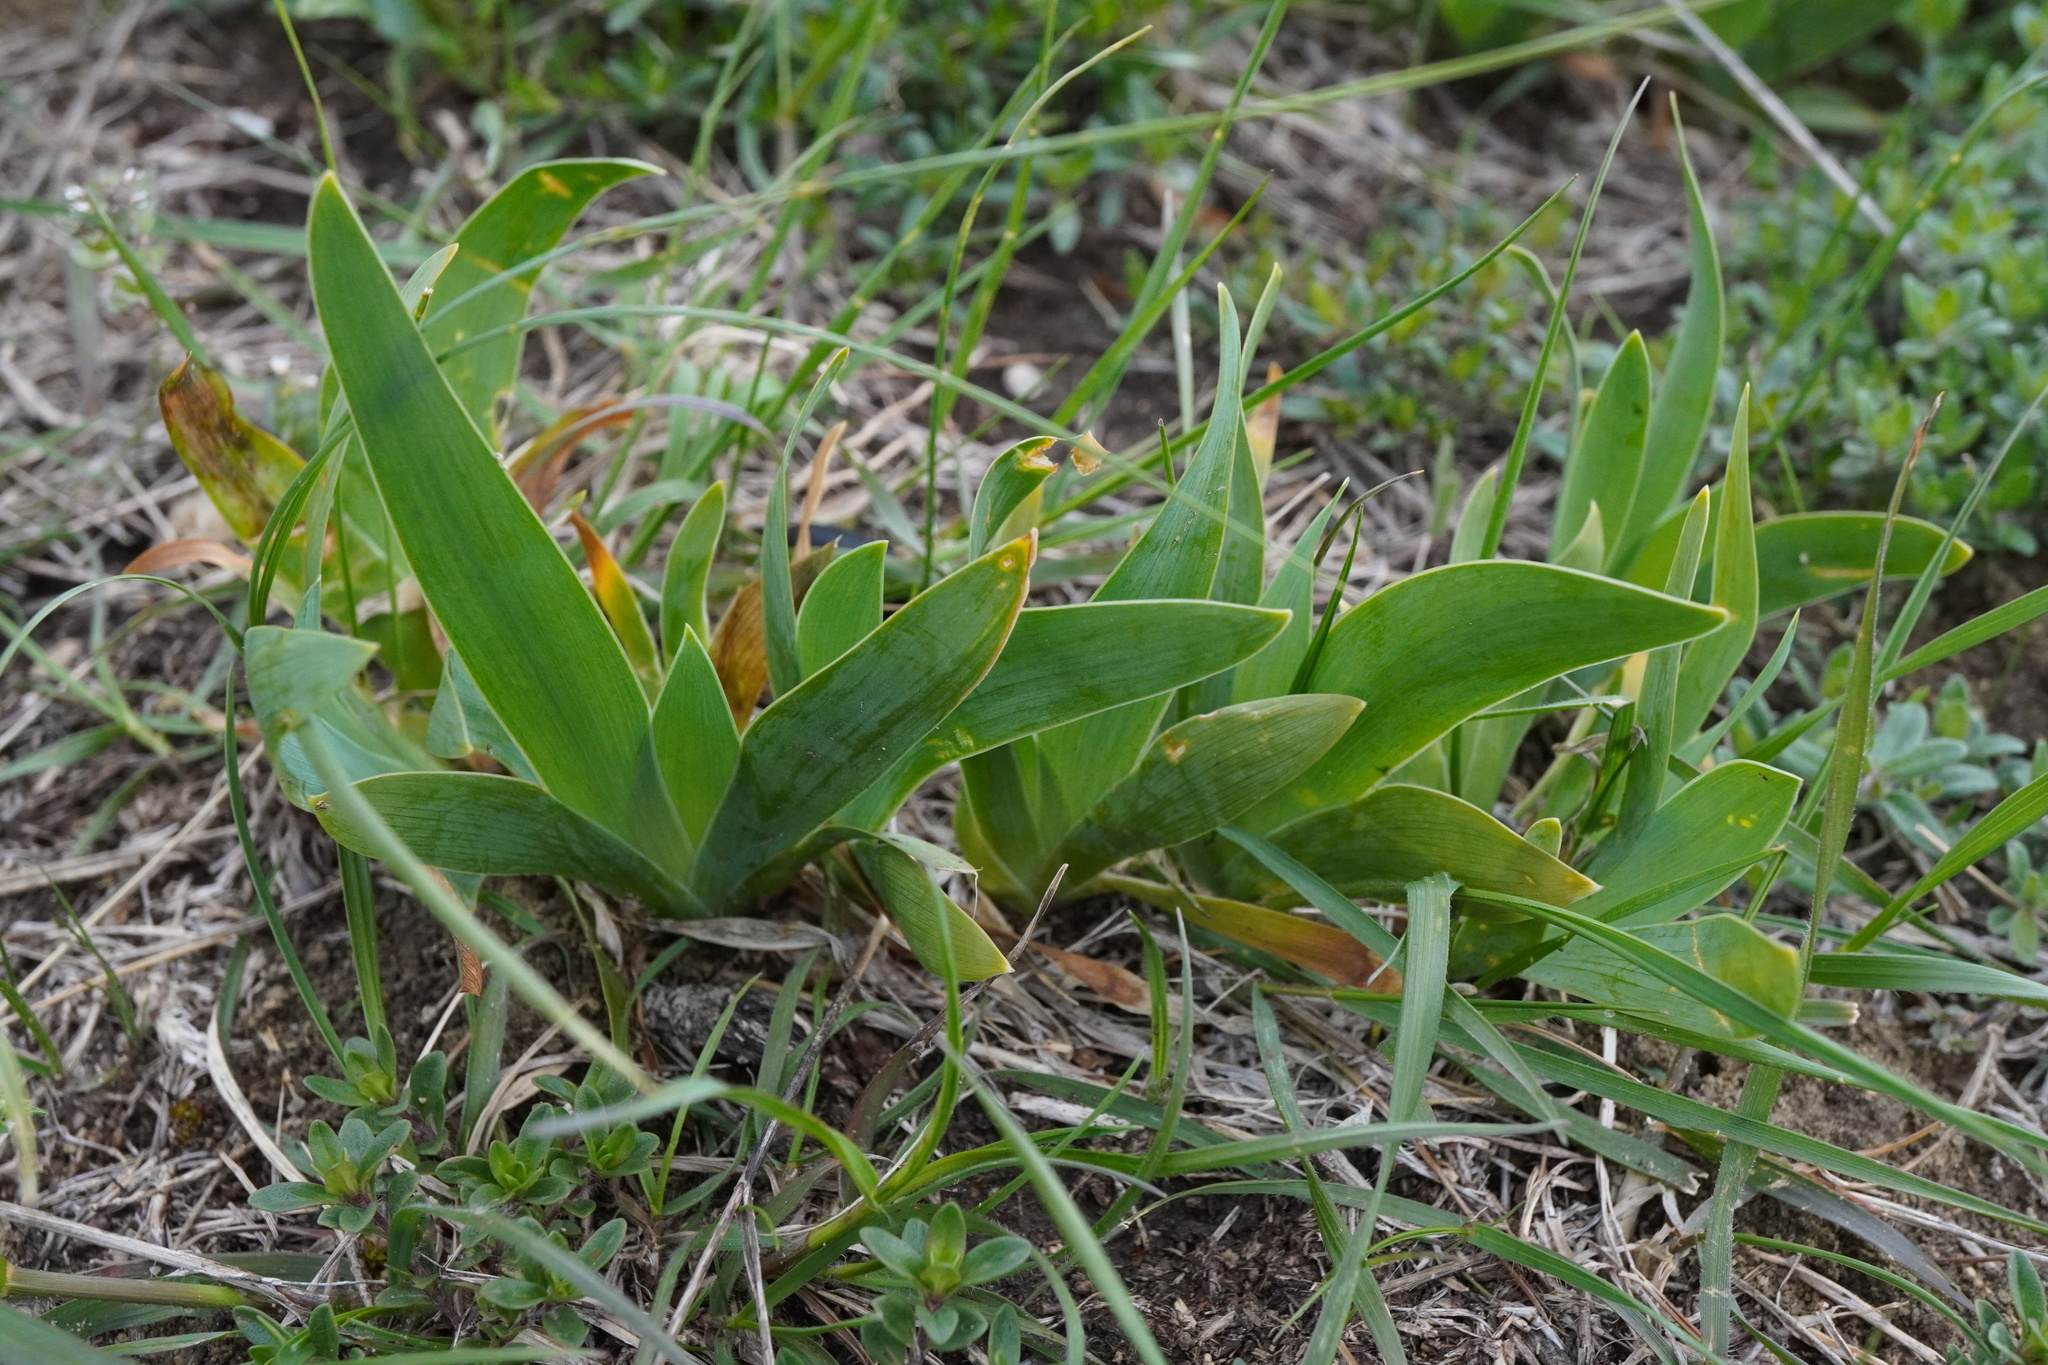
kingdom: Plantae
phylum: Tracheophyta
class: Liliopsida
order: Asparagales
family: Iridaceae
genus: Iris
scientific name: Iris pumila
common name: Dwarf iris
